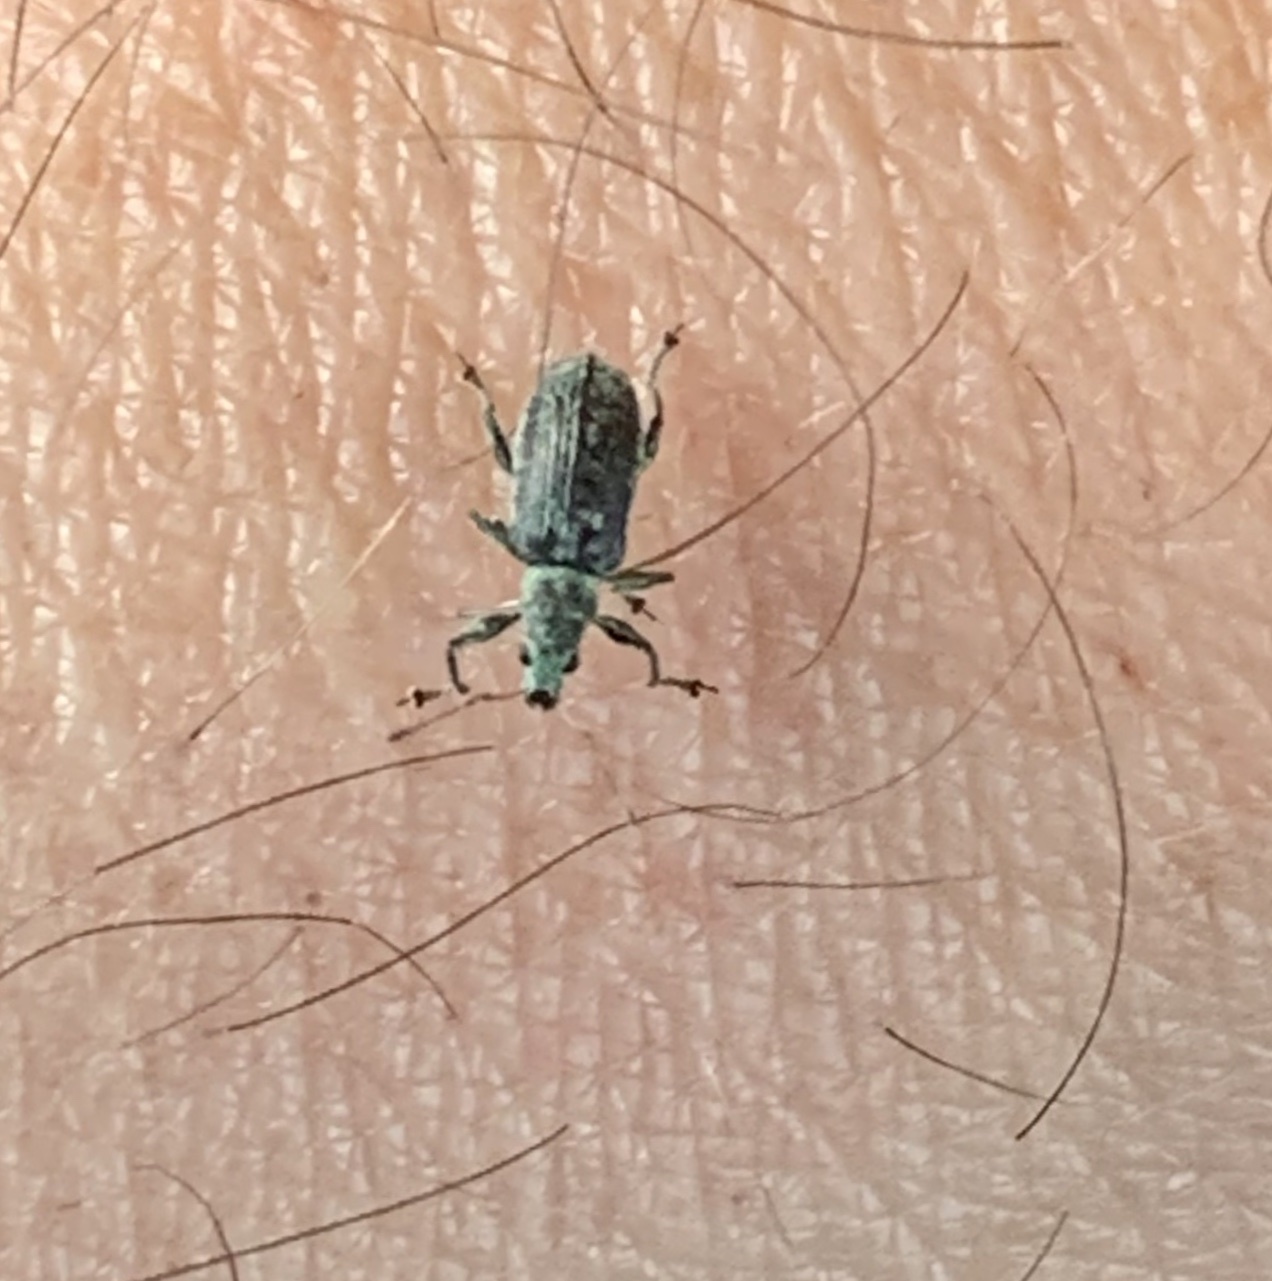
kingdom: Animalia
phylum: Arthropoda
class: Insecta
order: Coleoptera
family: Curculionidae
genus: Polydrusus
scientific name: Polydrusus cervinus
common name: Weevil
